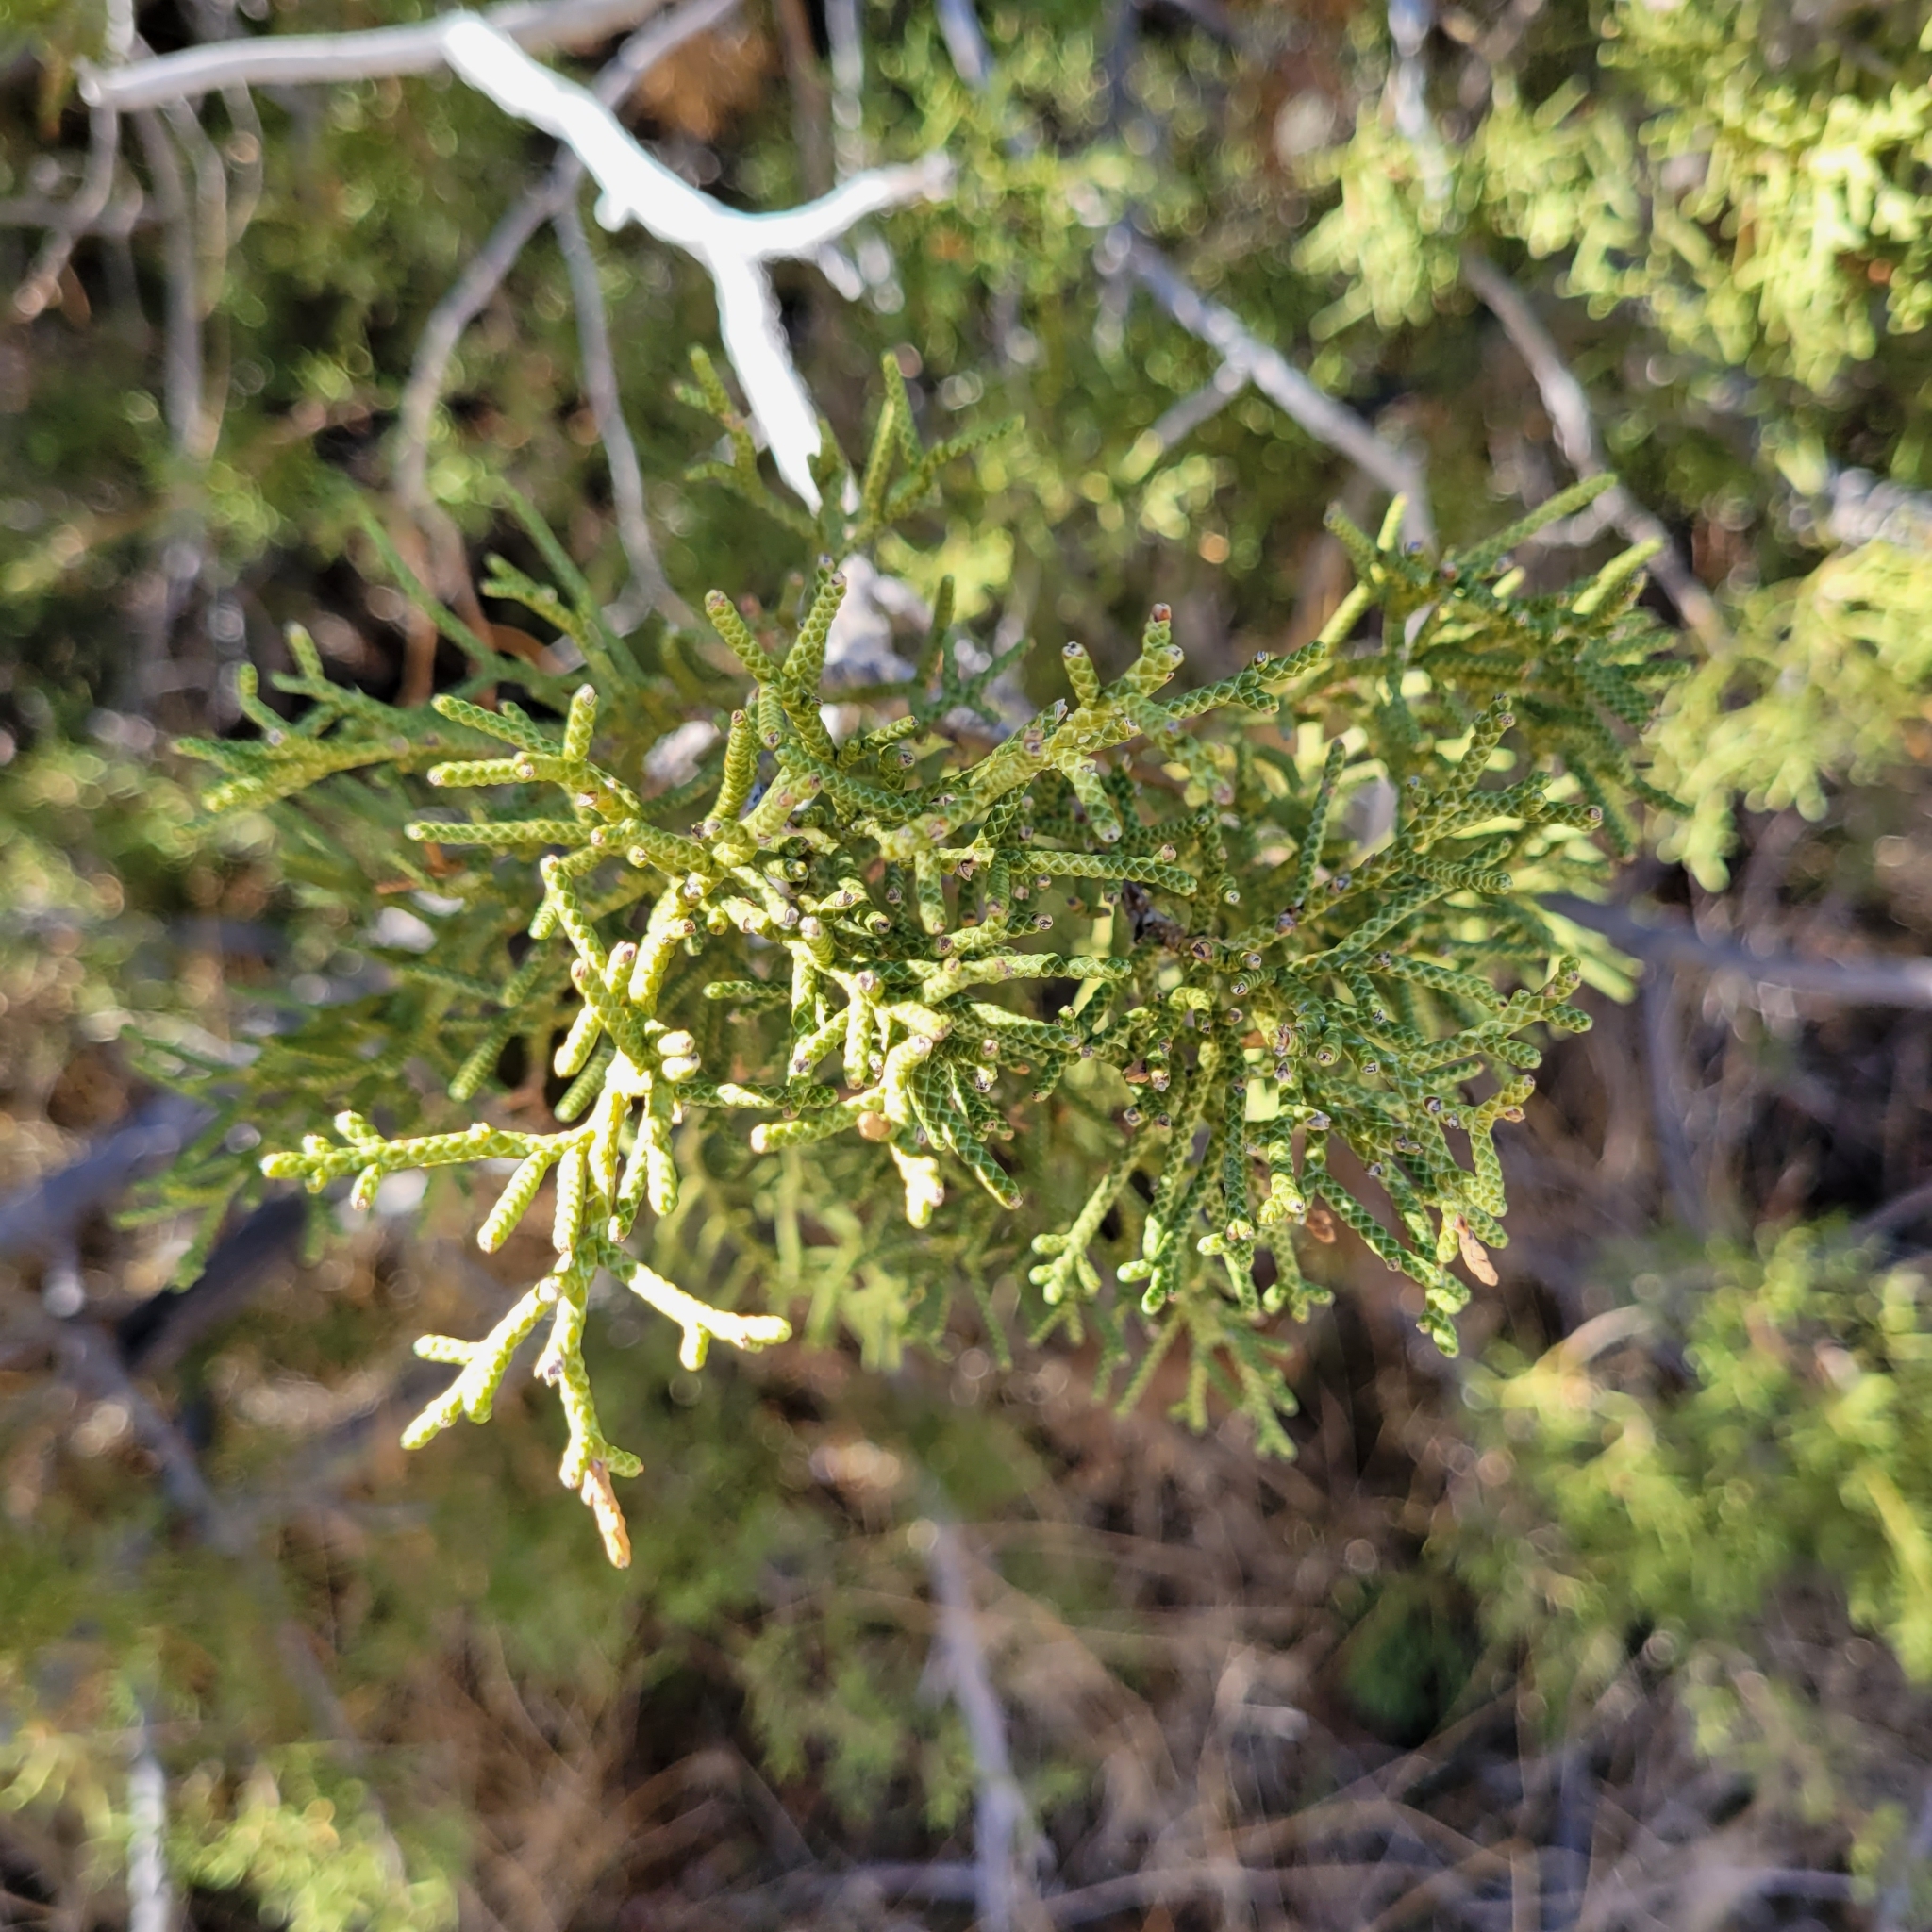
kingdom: Plantae
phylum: Tracheophyta
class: Pinopsida
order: Pinales
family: Cupressaceae
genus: Juniperus
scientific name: Juniperus californica
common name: California juniper
